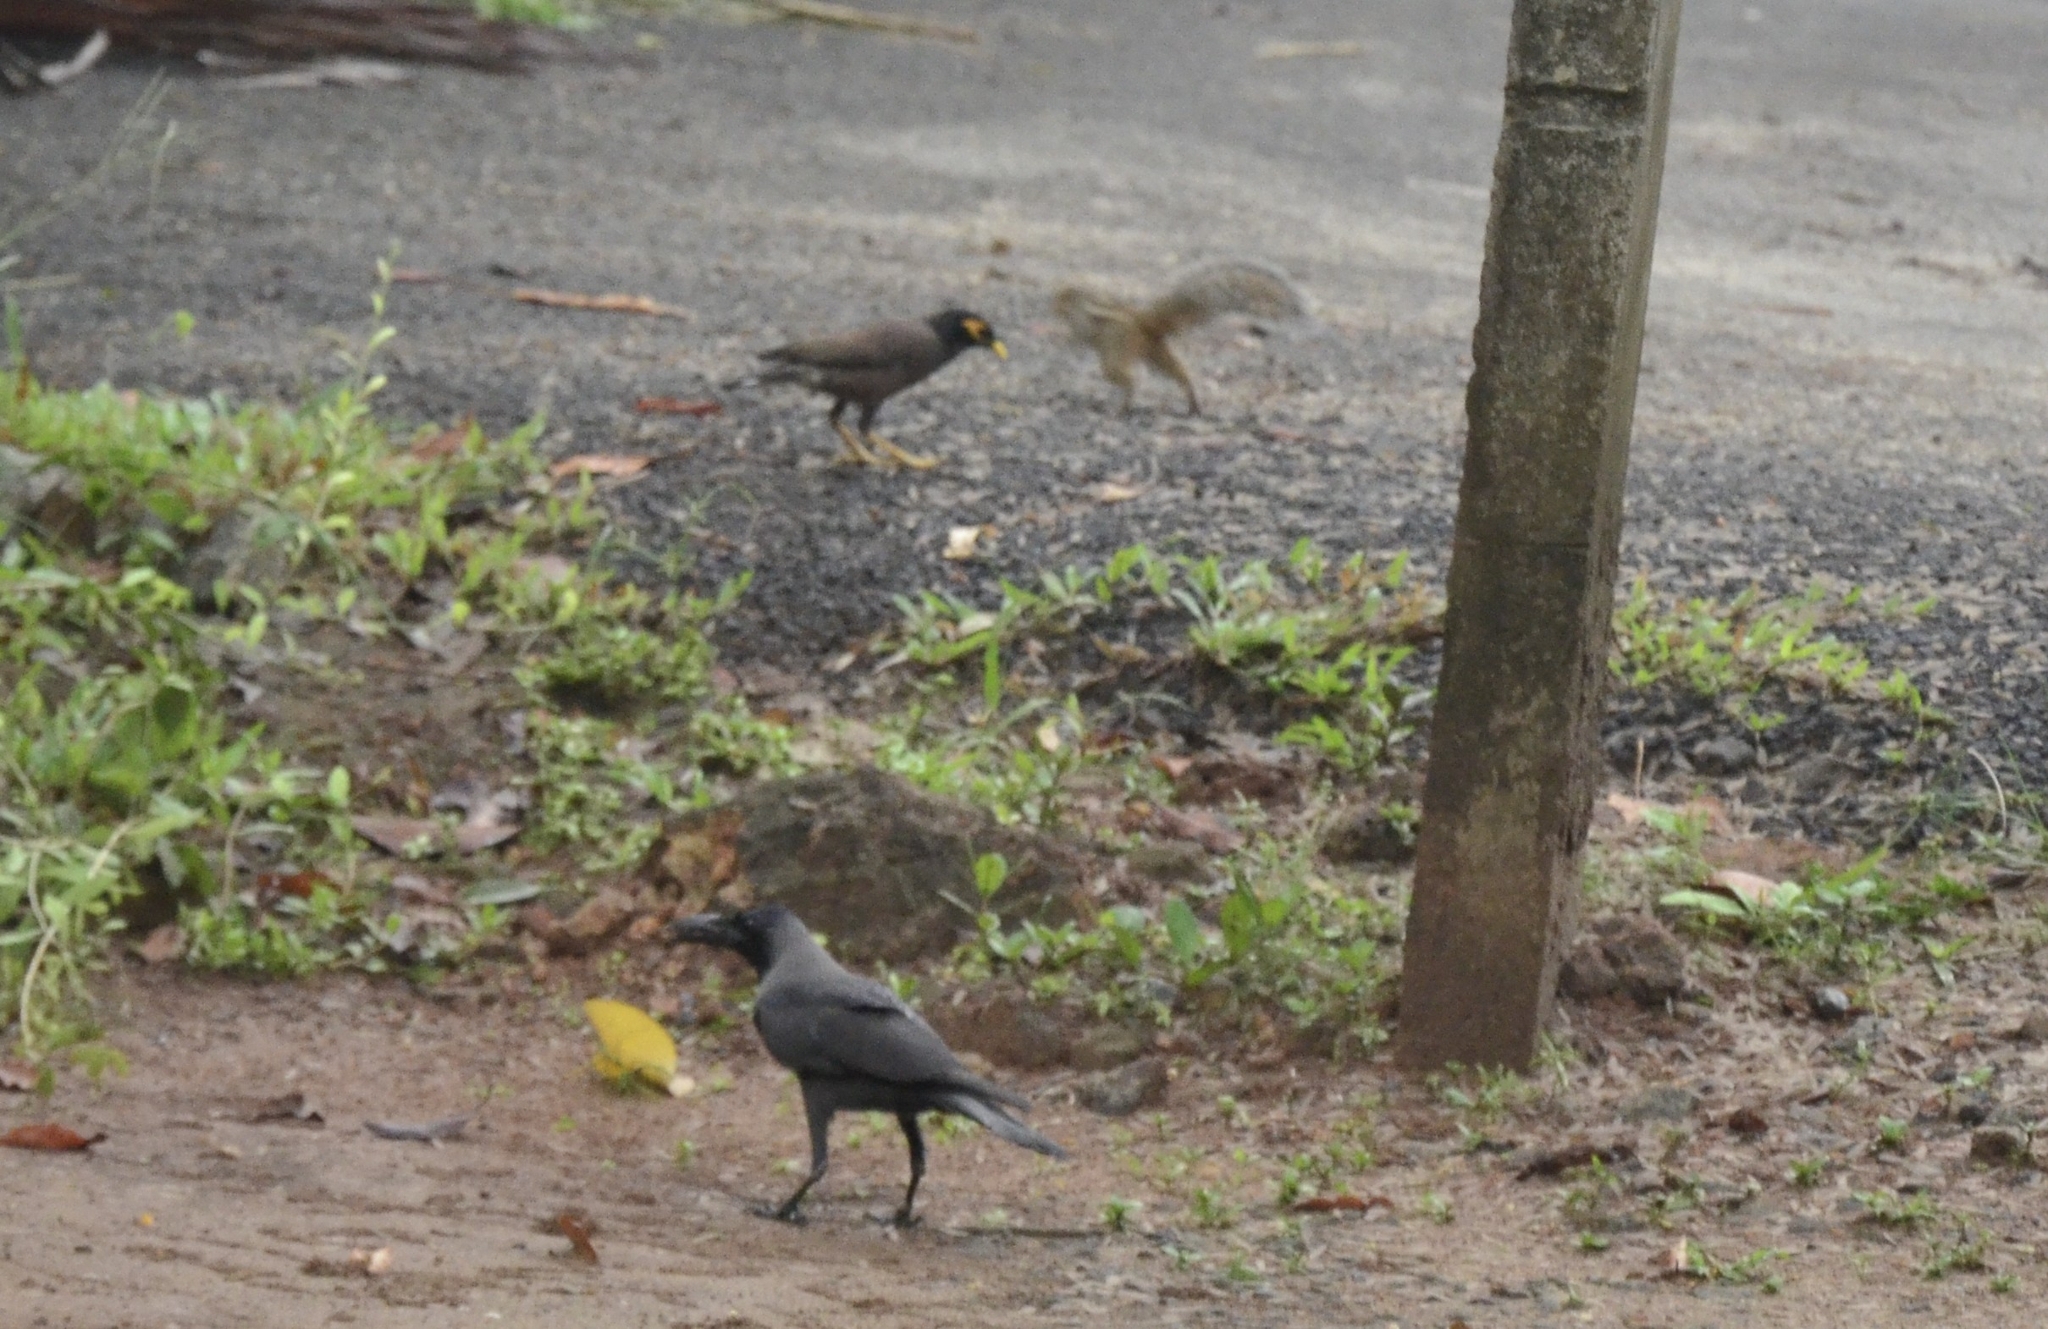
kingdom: Animalia
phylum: Chordata
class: Aves
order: Passeriformes
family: Corvidae
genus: Corvus
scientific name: Corvus splendens
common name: House crow
